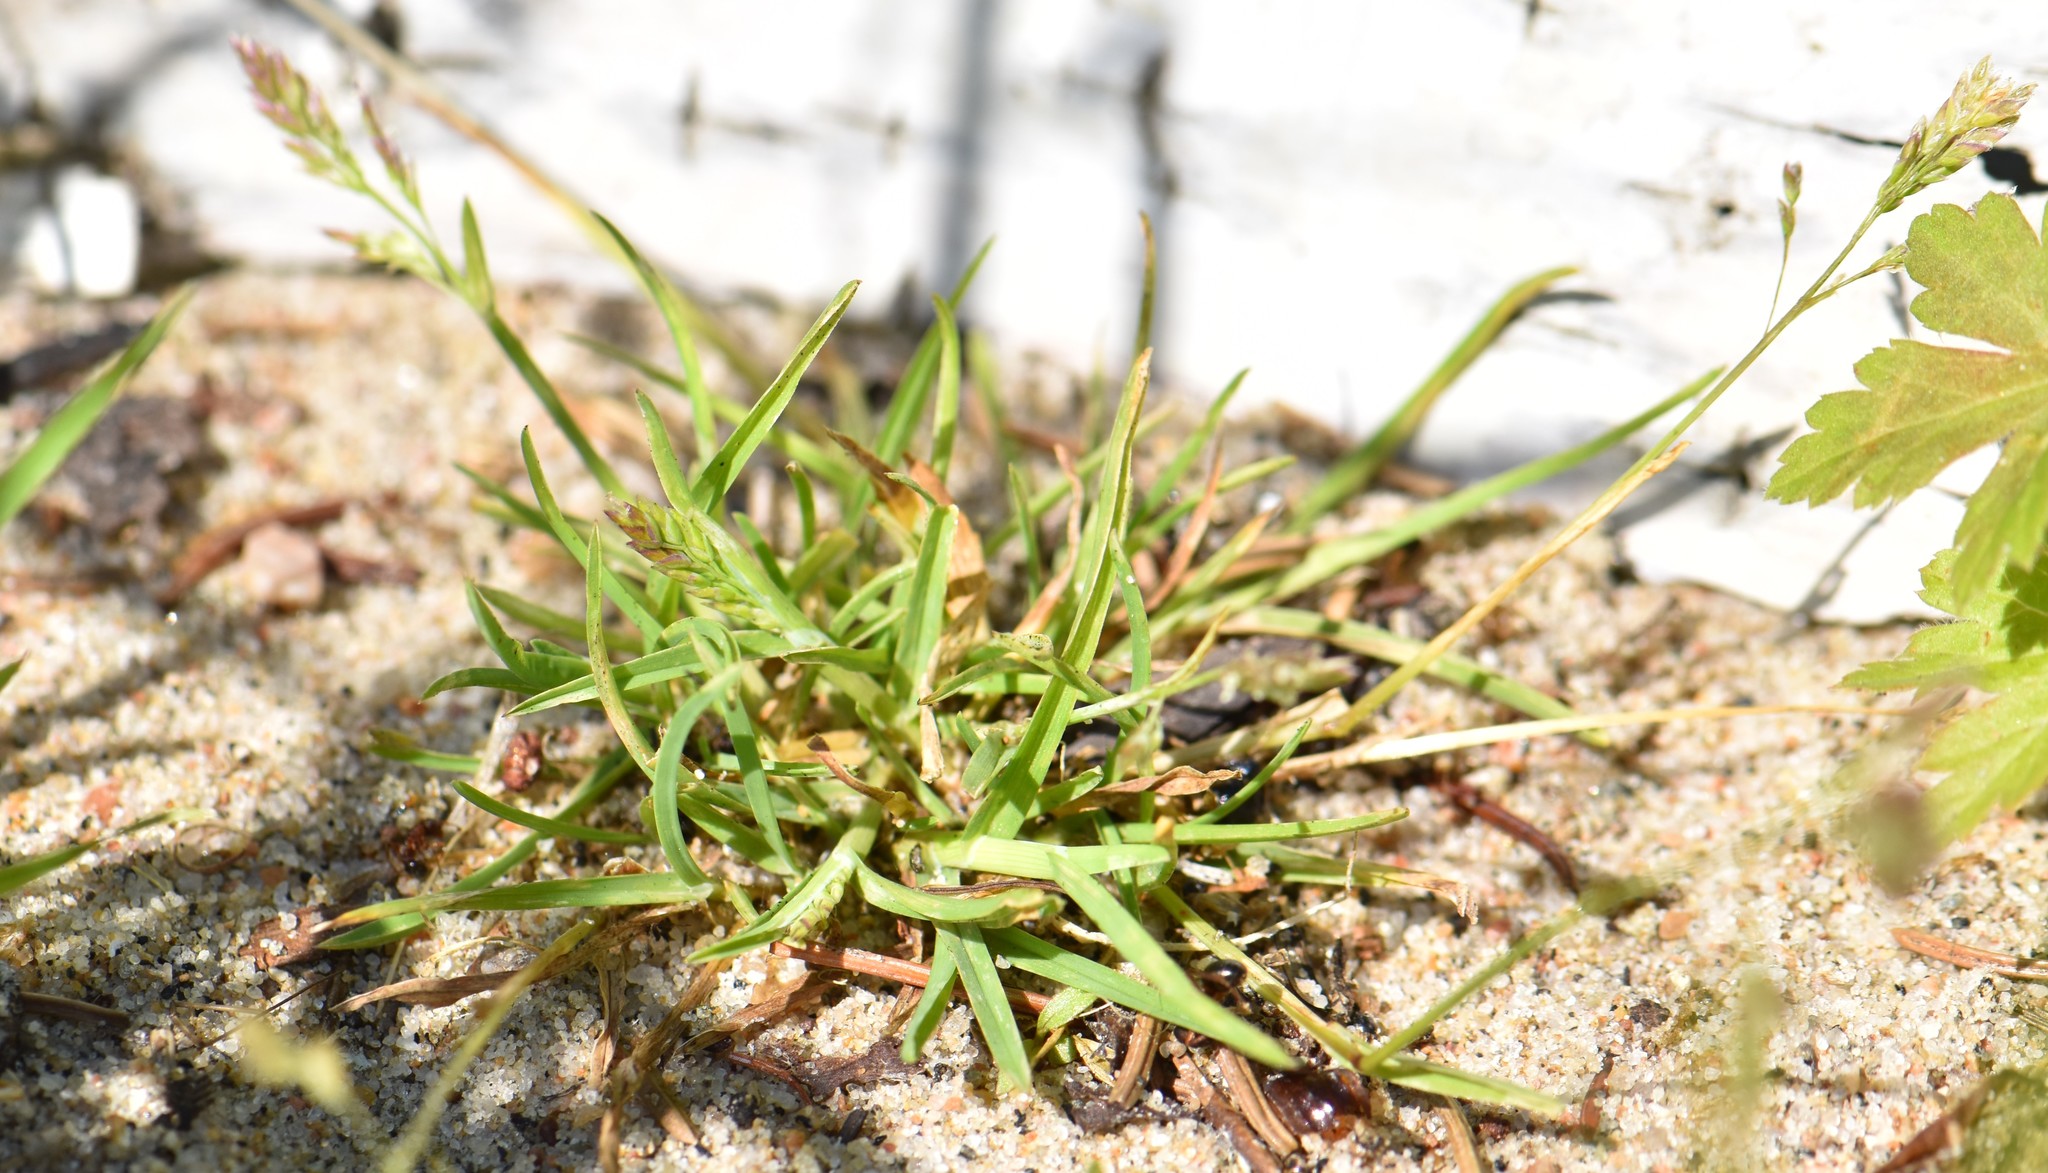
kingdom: Plantae
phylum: Tracheophyta
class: Liliopsida
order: Poales
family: Poaceae
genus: Poa
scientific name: Poa annua
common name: Annual bluegrass
